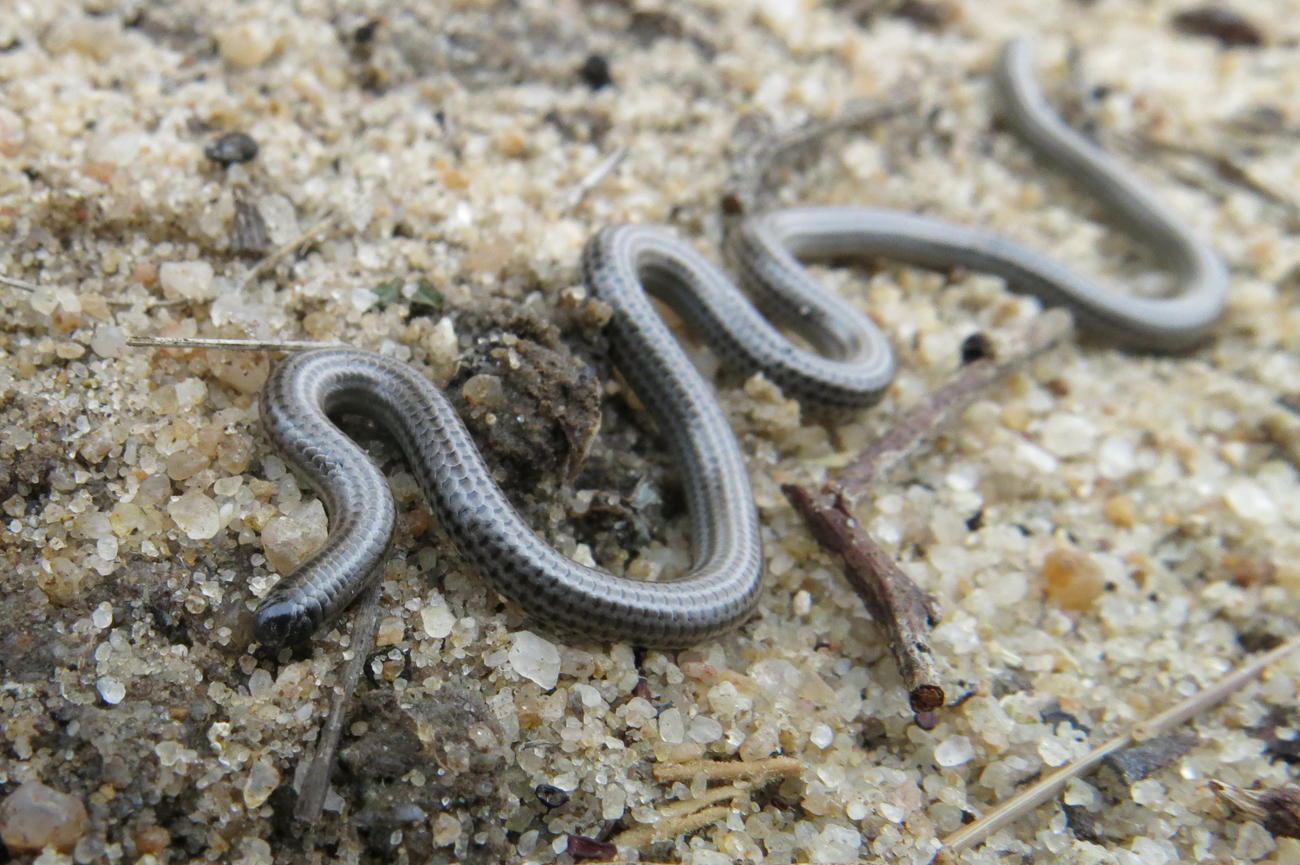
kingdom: Animalia
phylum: Chordata
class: Squamata
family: Leptotyphlopidae
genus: Leptotyphlops
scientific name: Leptotyphlops distanti
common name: Distant's thread snake
